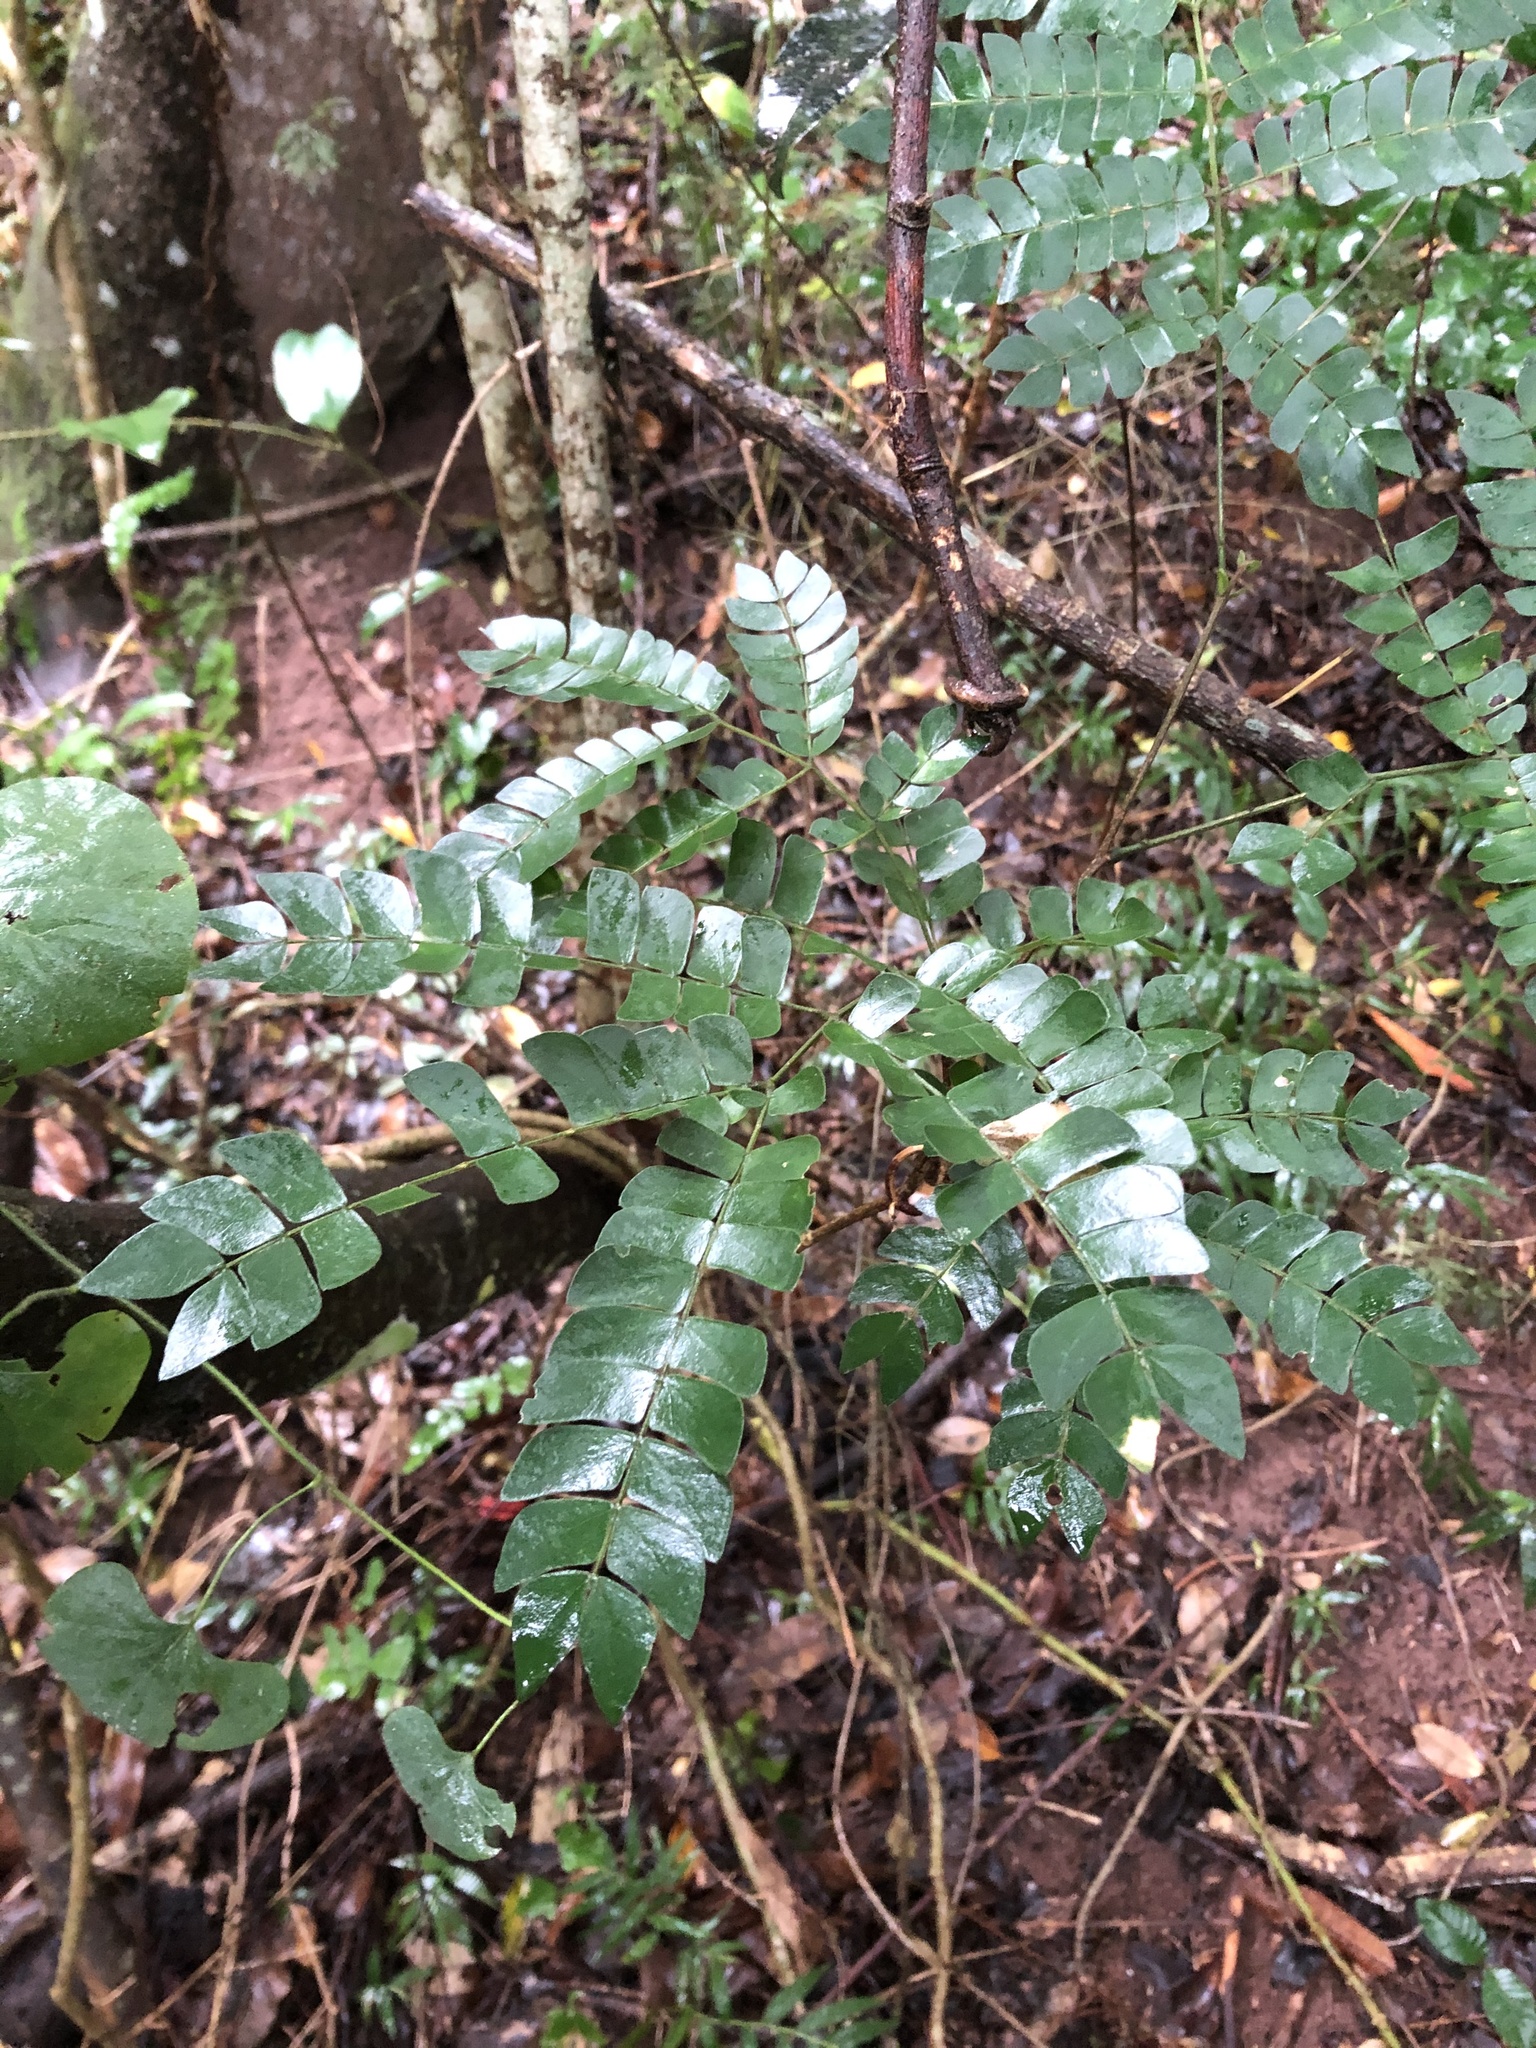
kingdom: Plantae
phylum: Tracheophyta
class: Magnoliopsida
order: Fabales
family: Fabaceae
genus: Albizia
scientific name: Albizia adianthifolia
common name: West african albizia
